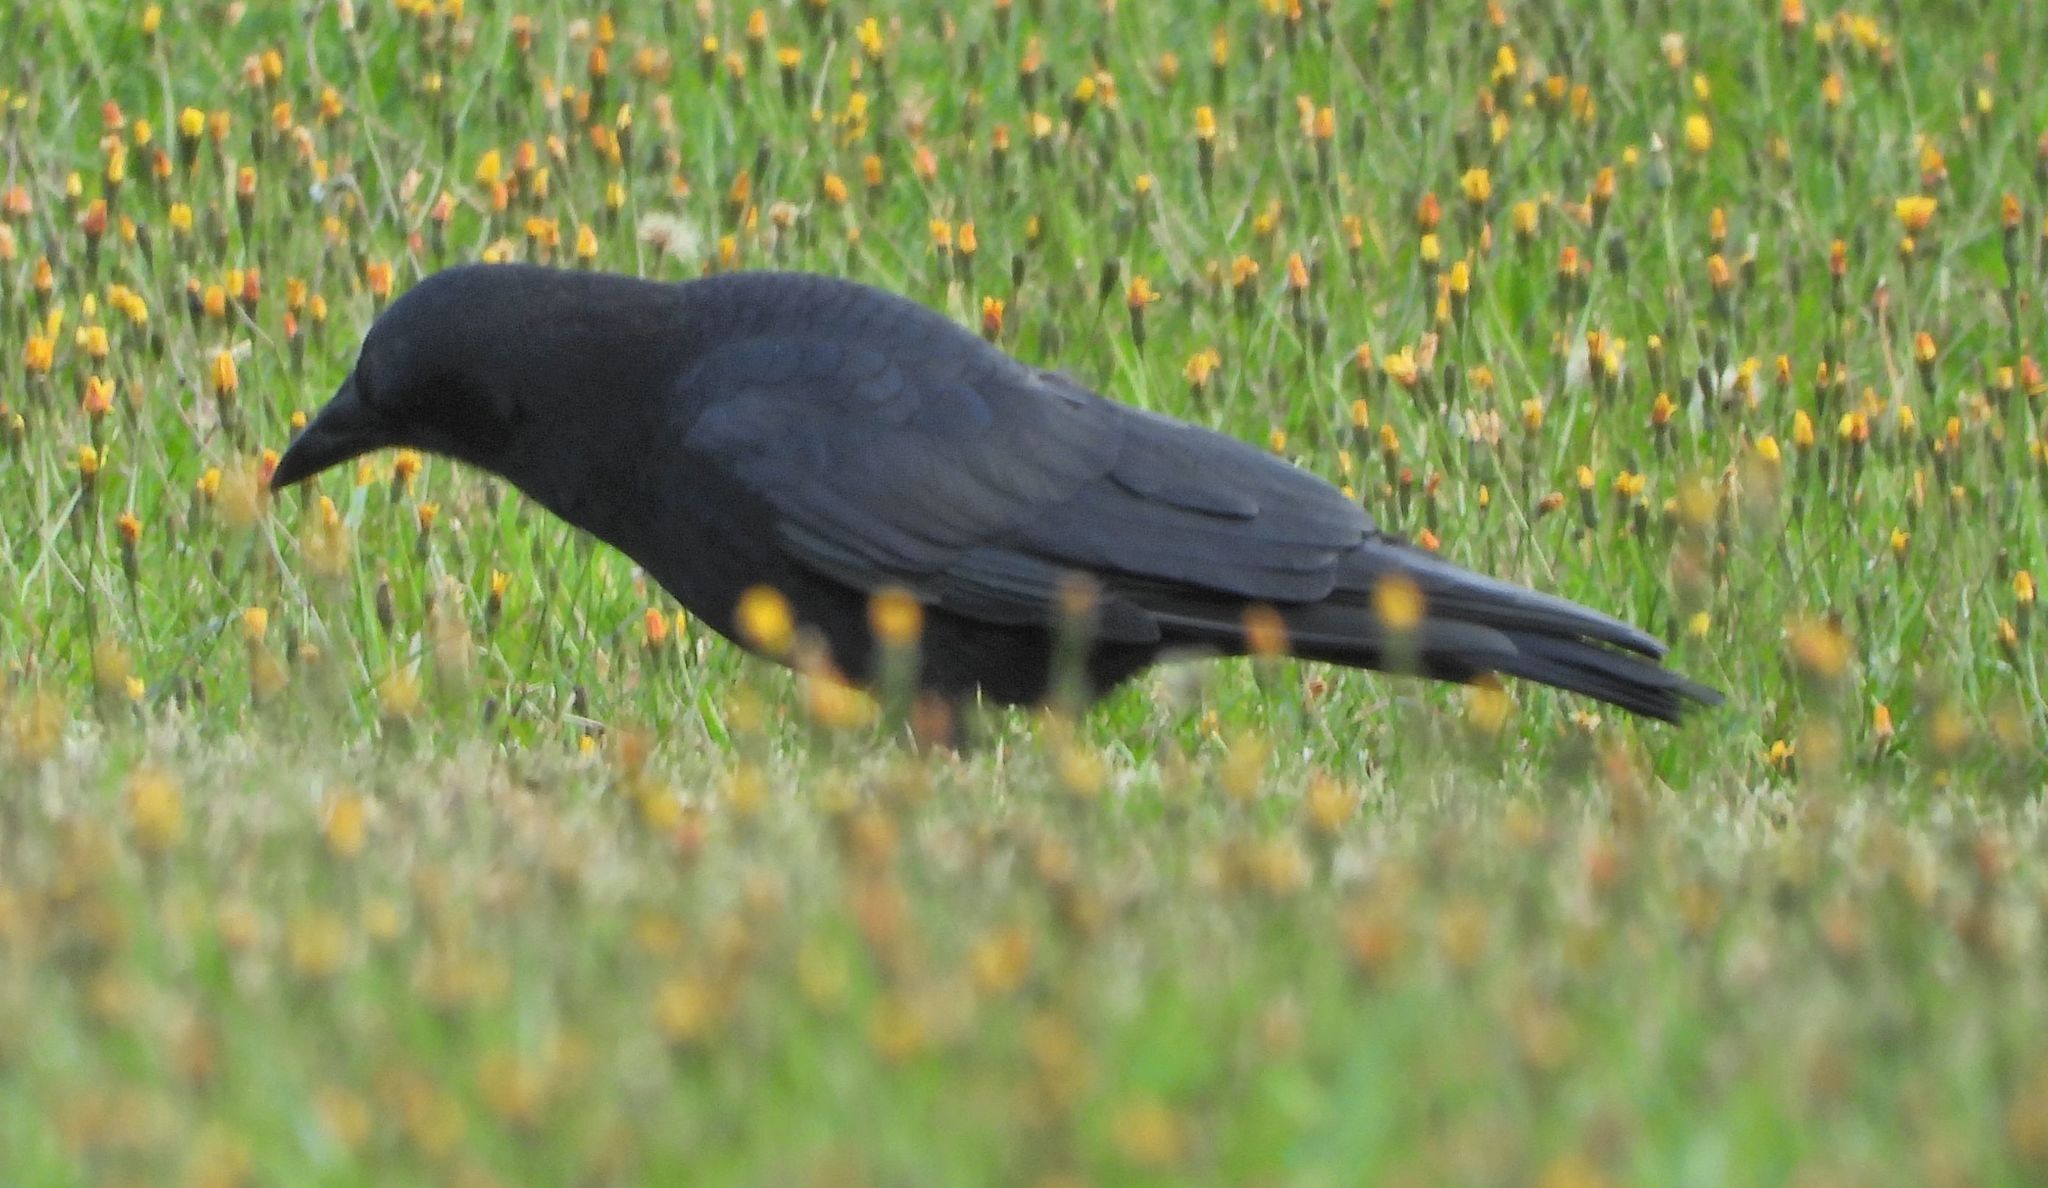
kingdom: Animalia
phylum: Chordata
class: Aves
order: Passeriformes
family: Corvidae
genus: Corvus
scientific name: Corvus brachyrhynchos
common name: American crow
